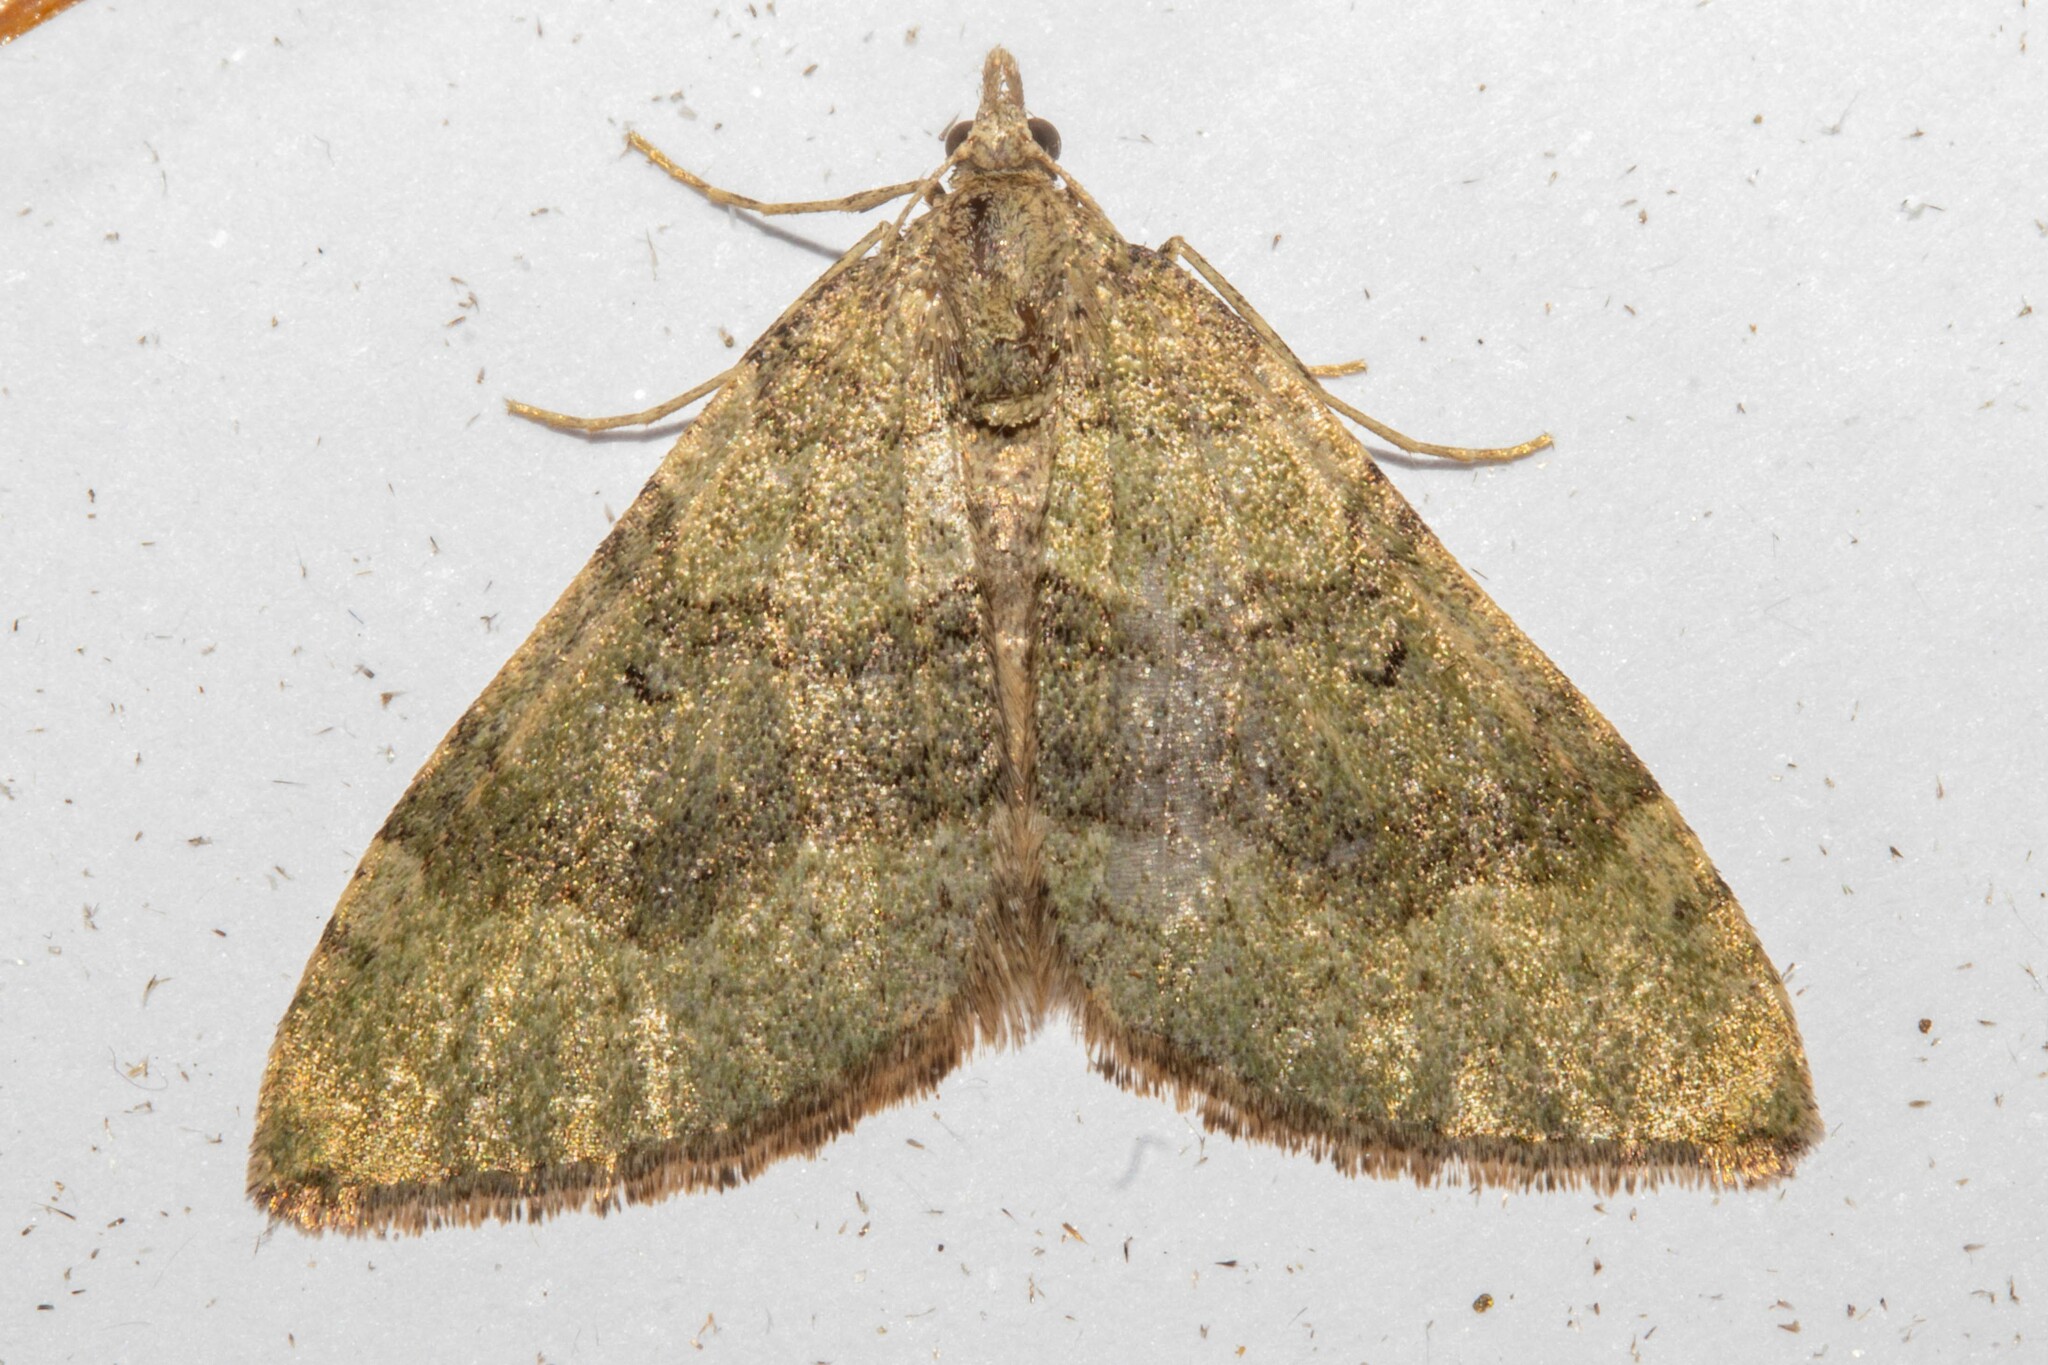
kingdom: Animalia
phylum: Arthropoda
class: Insecta
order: Lepidoptera
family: Geometridae
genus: Epyaxa
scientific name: Epyaxa rosearia
